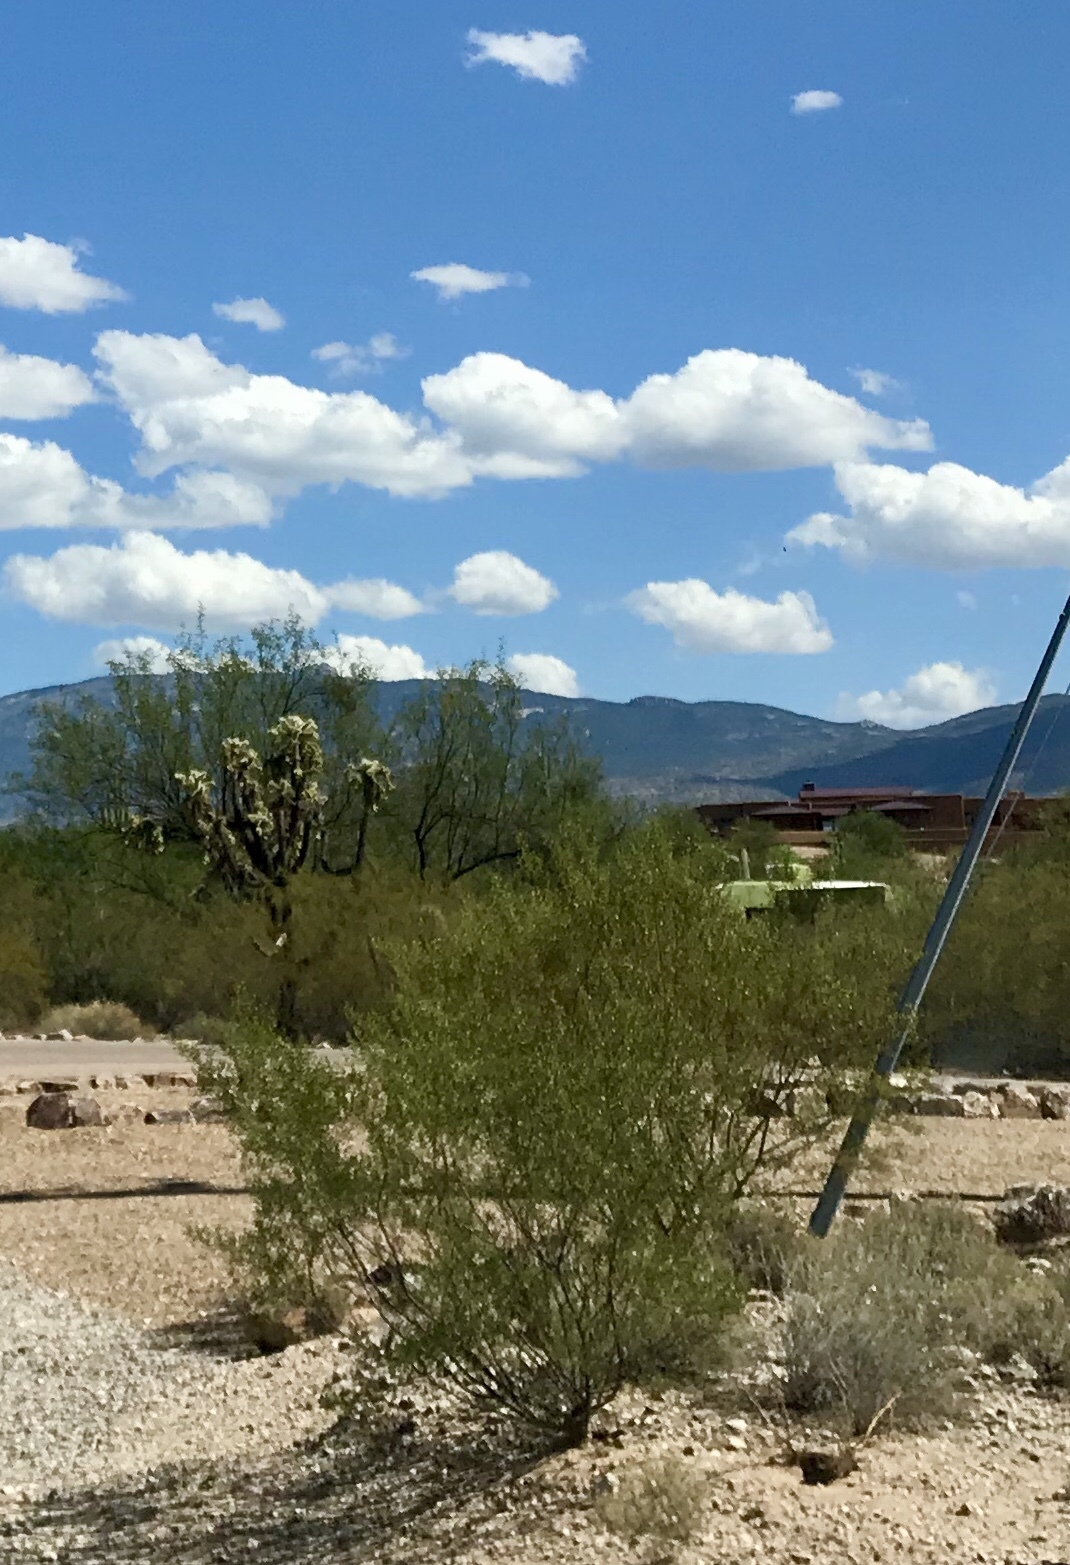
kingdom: Plantae
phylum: Tracheophyta
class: Magnoliopsida
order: Zygophyllales
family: Zygophyllaceae
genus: Larrea
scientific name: Larrea tridentata
